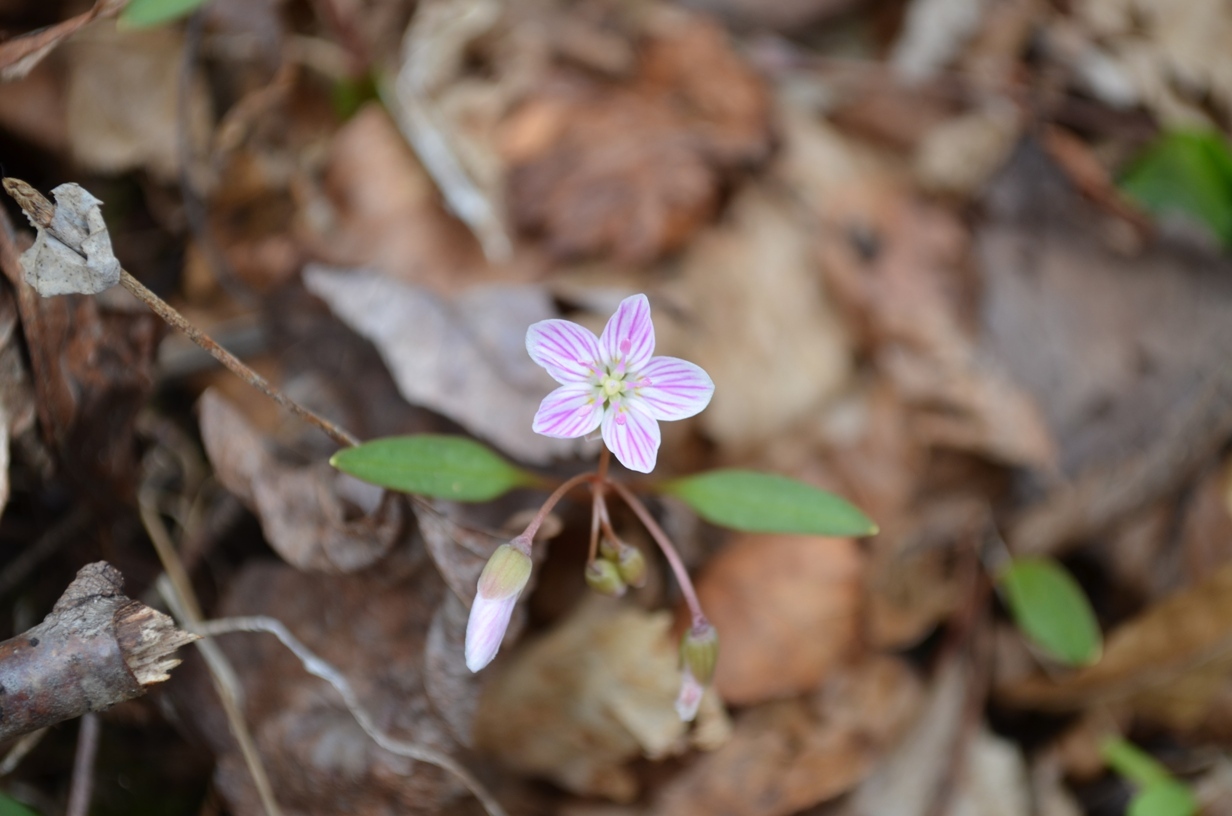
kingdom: Plantae
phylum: Tracheophyta
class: Magnoliopsida
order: Caryophyllales
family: Montiaceae
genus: Claytonia
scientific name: Claytonia caroliniana
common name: Carolina spring beauty
